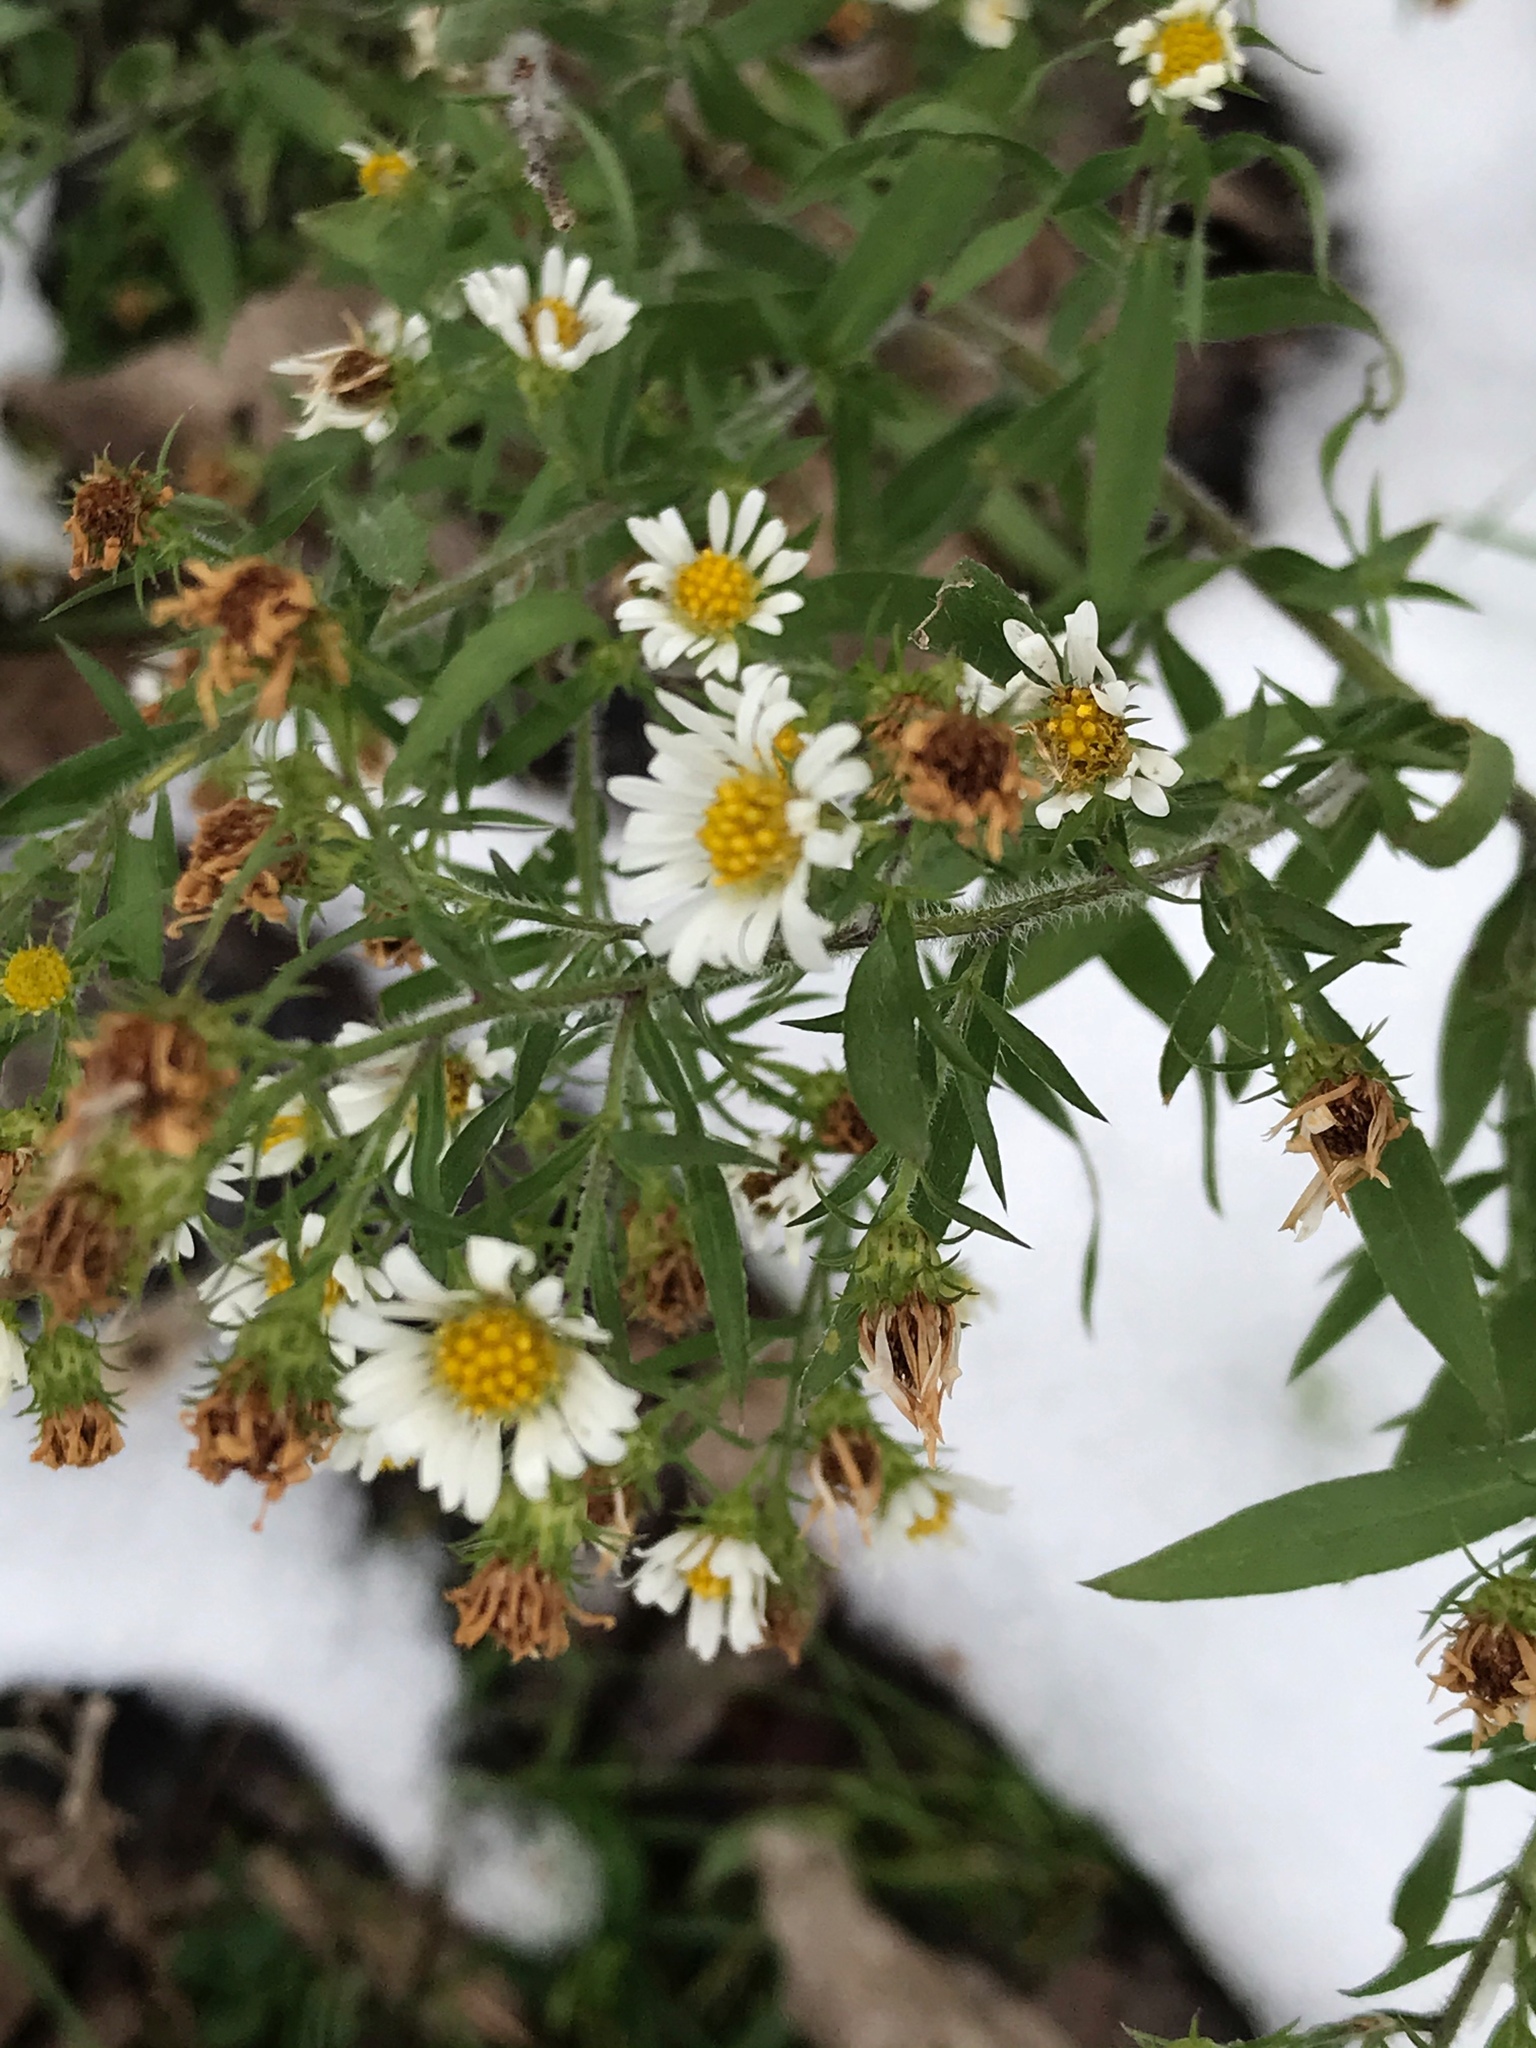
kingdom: Plantae
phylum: Tracheophyta
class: Magnoliopsida
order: Asterales
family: Asteraceae
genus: Symphyotrichum
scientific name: Symphyotrichum pilosum
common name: Awl aster
